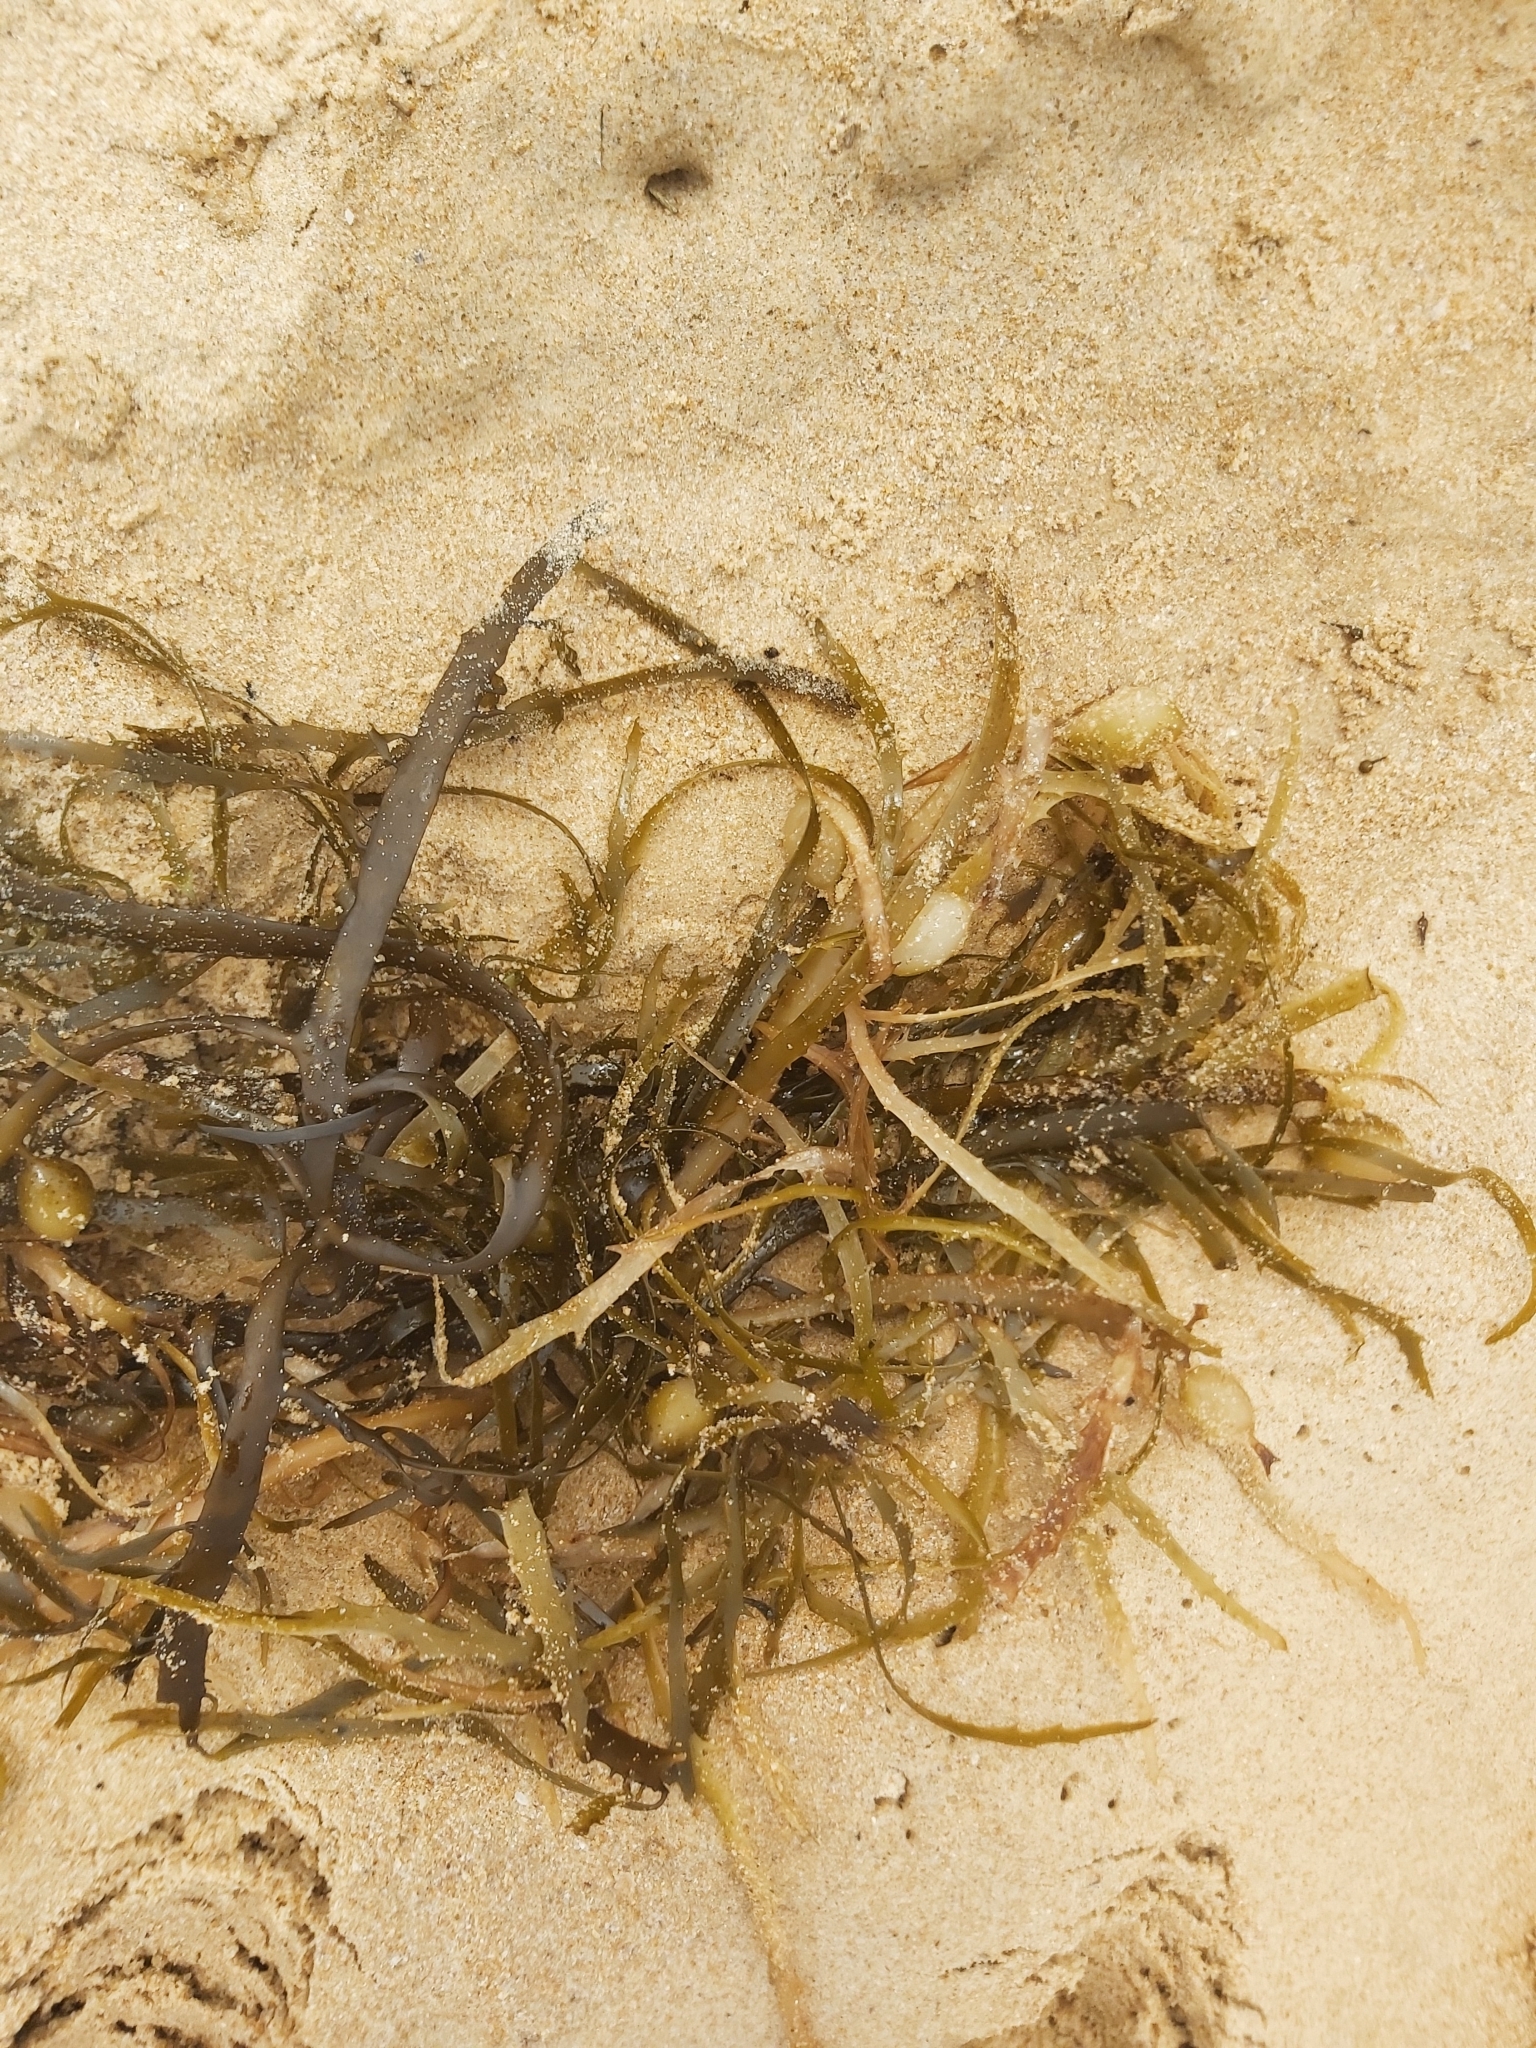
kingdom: Chromista
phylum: Ochrophyta
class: Phaeophyceae
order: Fucales
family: Seirococcaceae
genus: Phyllospora
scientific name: Phyllospora
